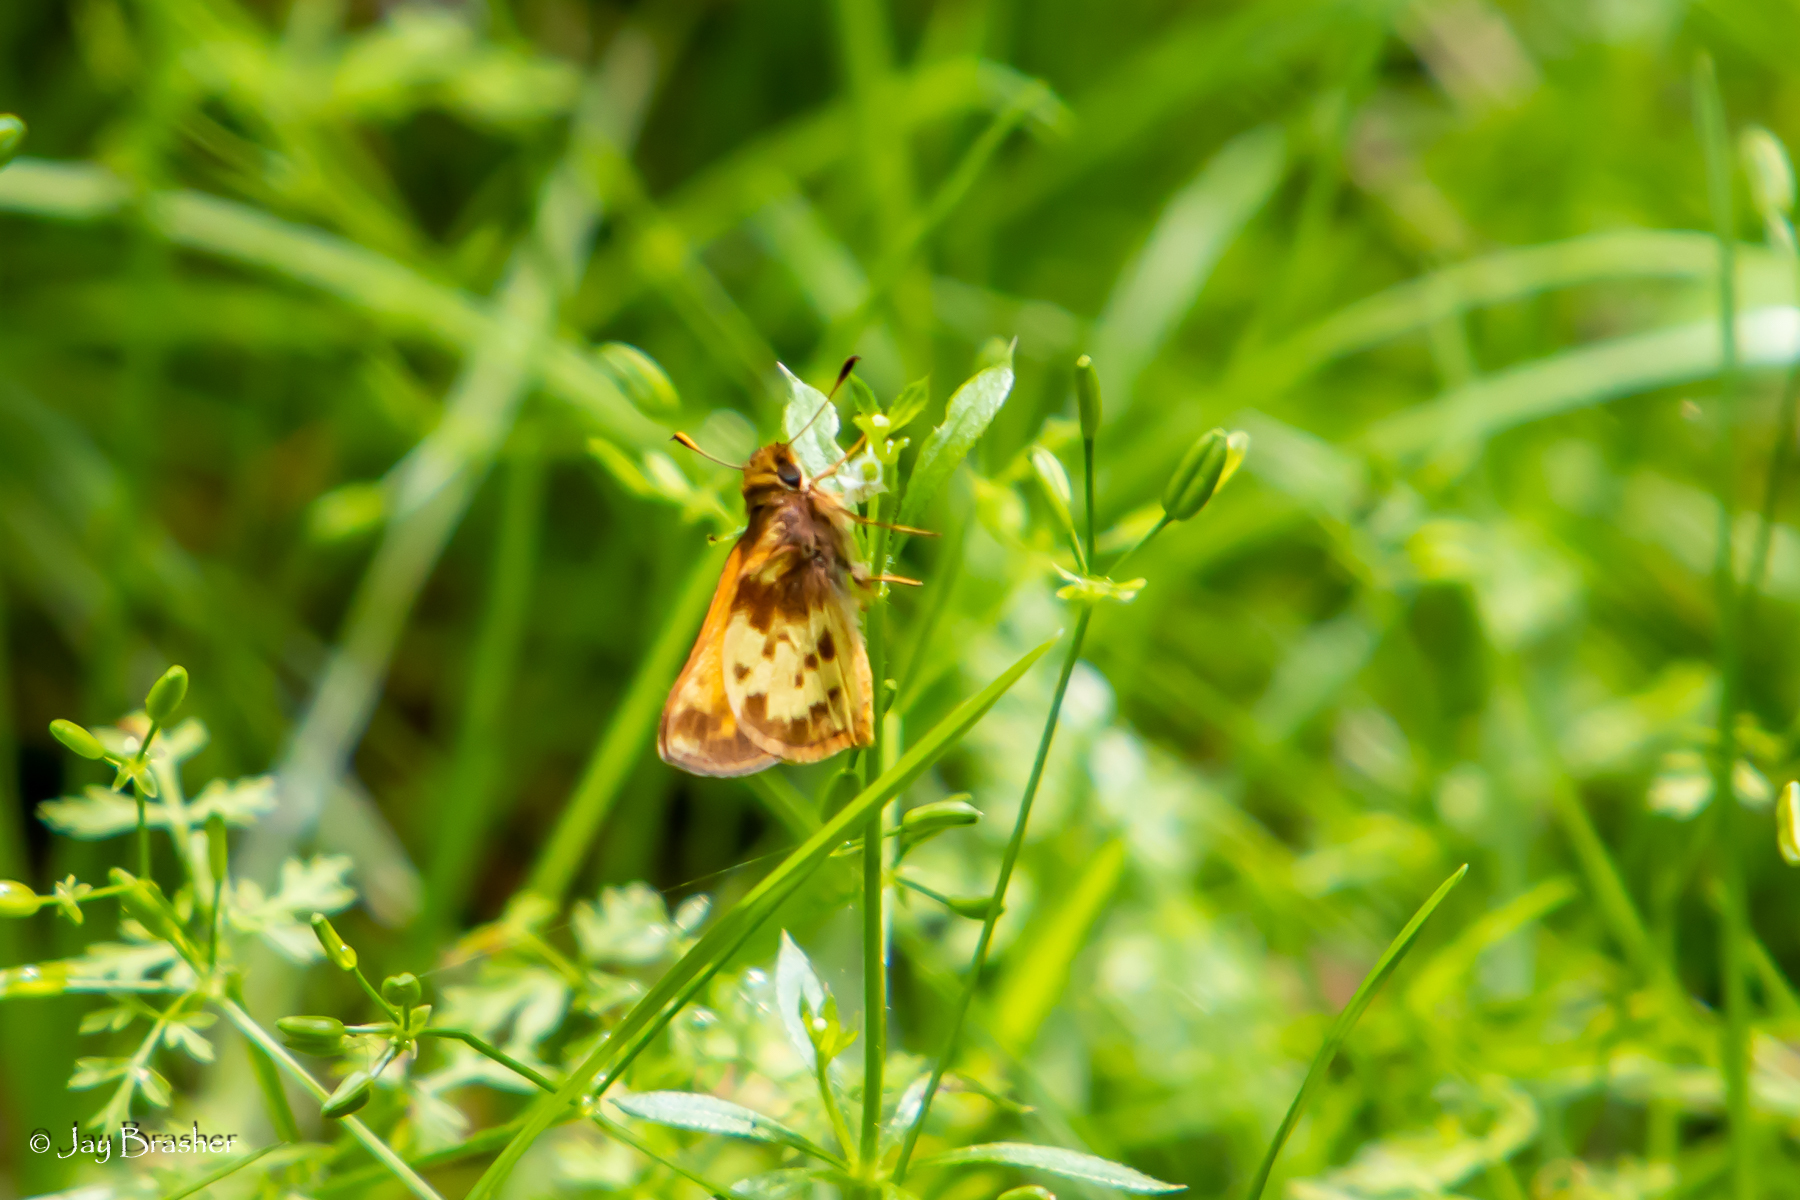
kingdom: Animalia
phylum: Arthropoda
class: Insecta
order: Lepidoptera
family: Hesperiidae
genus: Lon
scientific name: Lon zabulon
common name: Zabulon skipper
